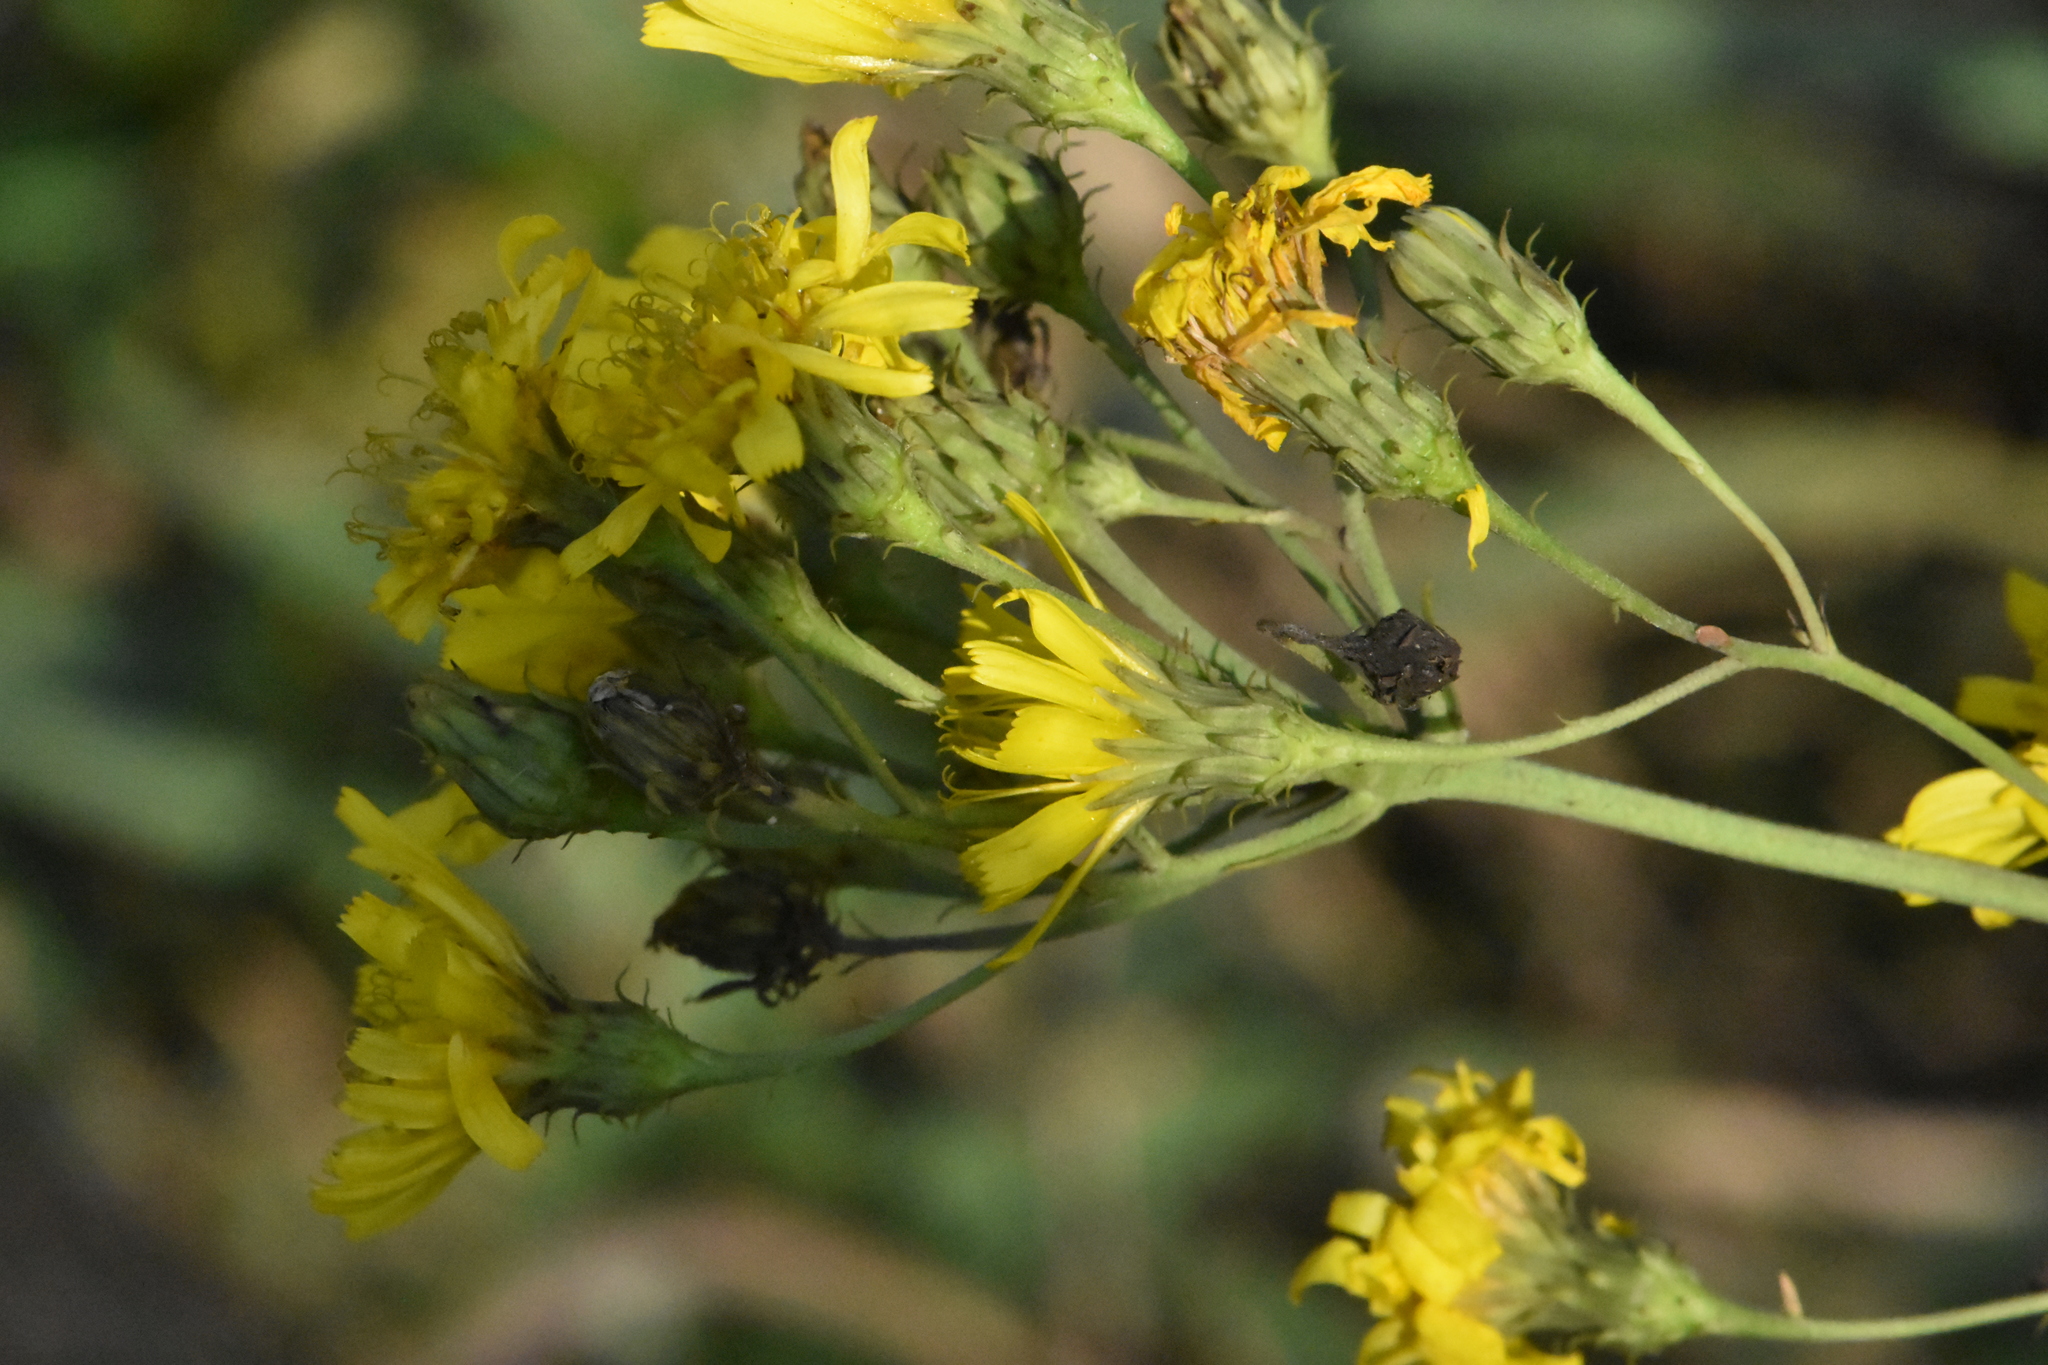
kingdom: Plantae
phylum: Tracheophyta
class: Magnoliopsida
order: Asterales
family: Asteraceae
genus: Hieracium
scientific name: Hieracium umbellatum
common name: Northern hawkweed
